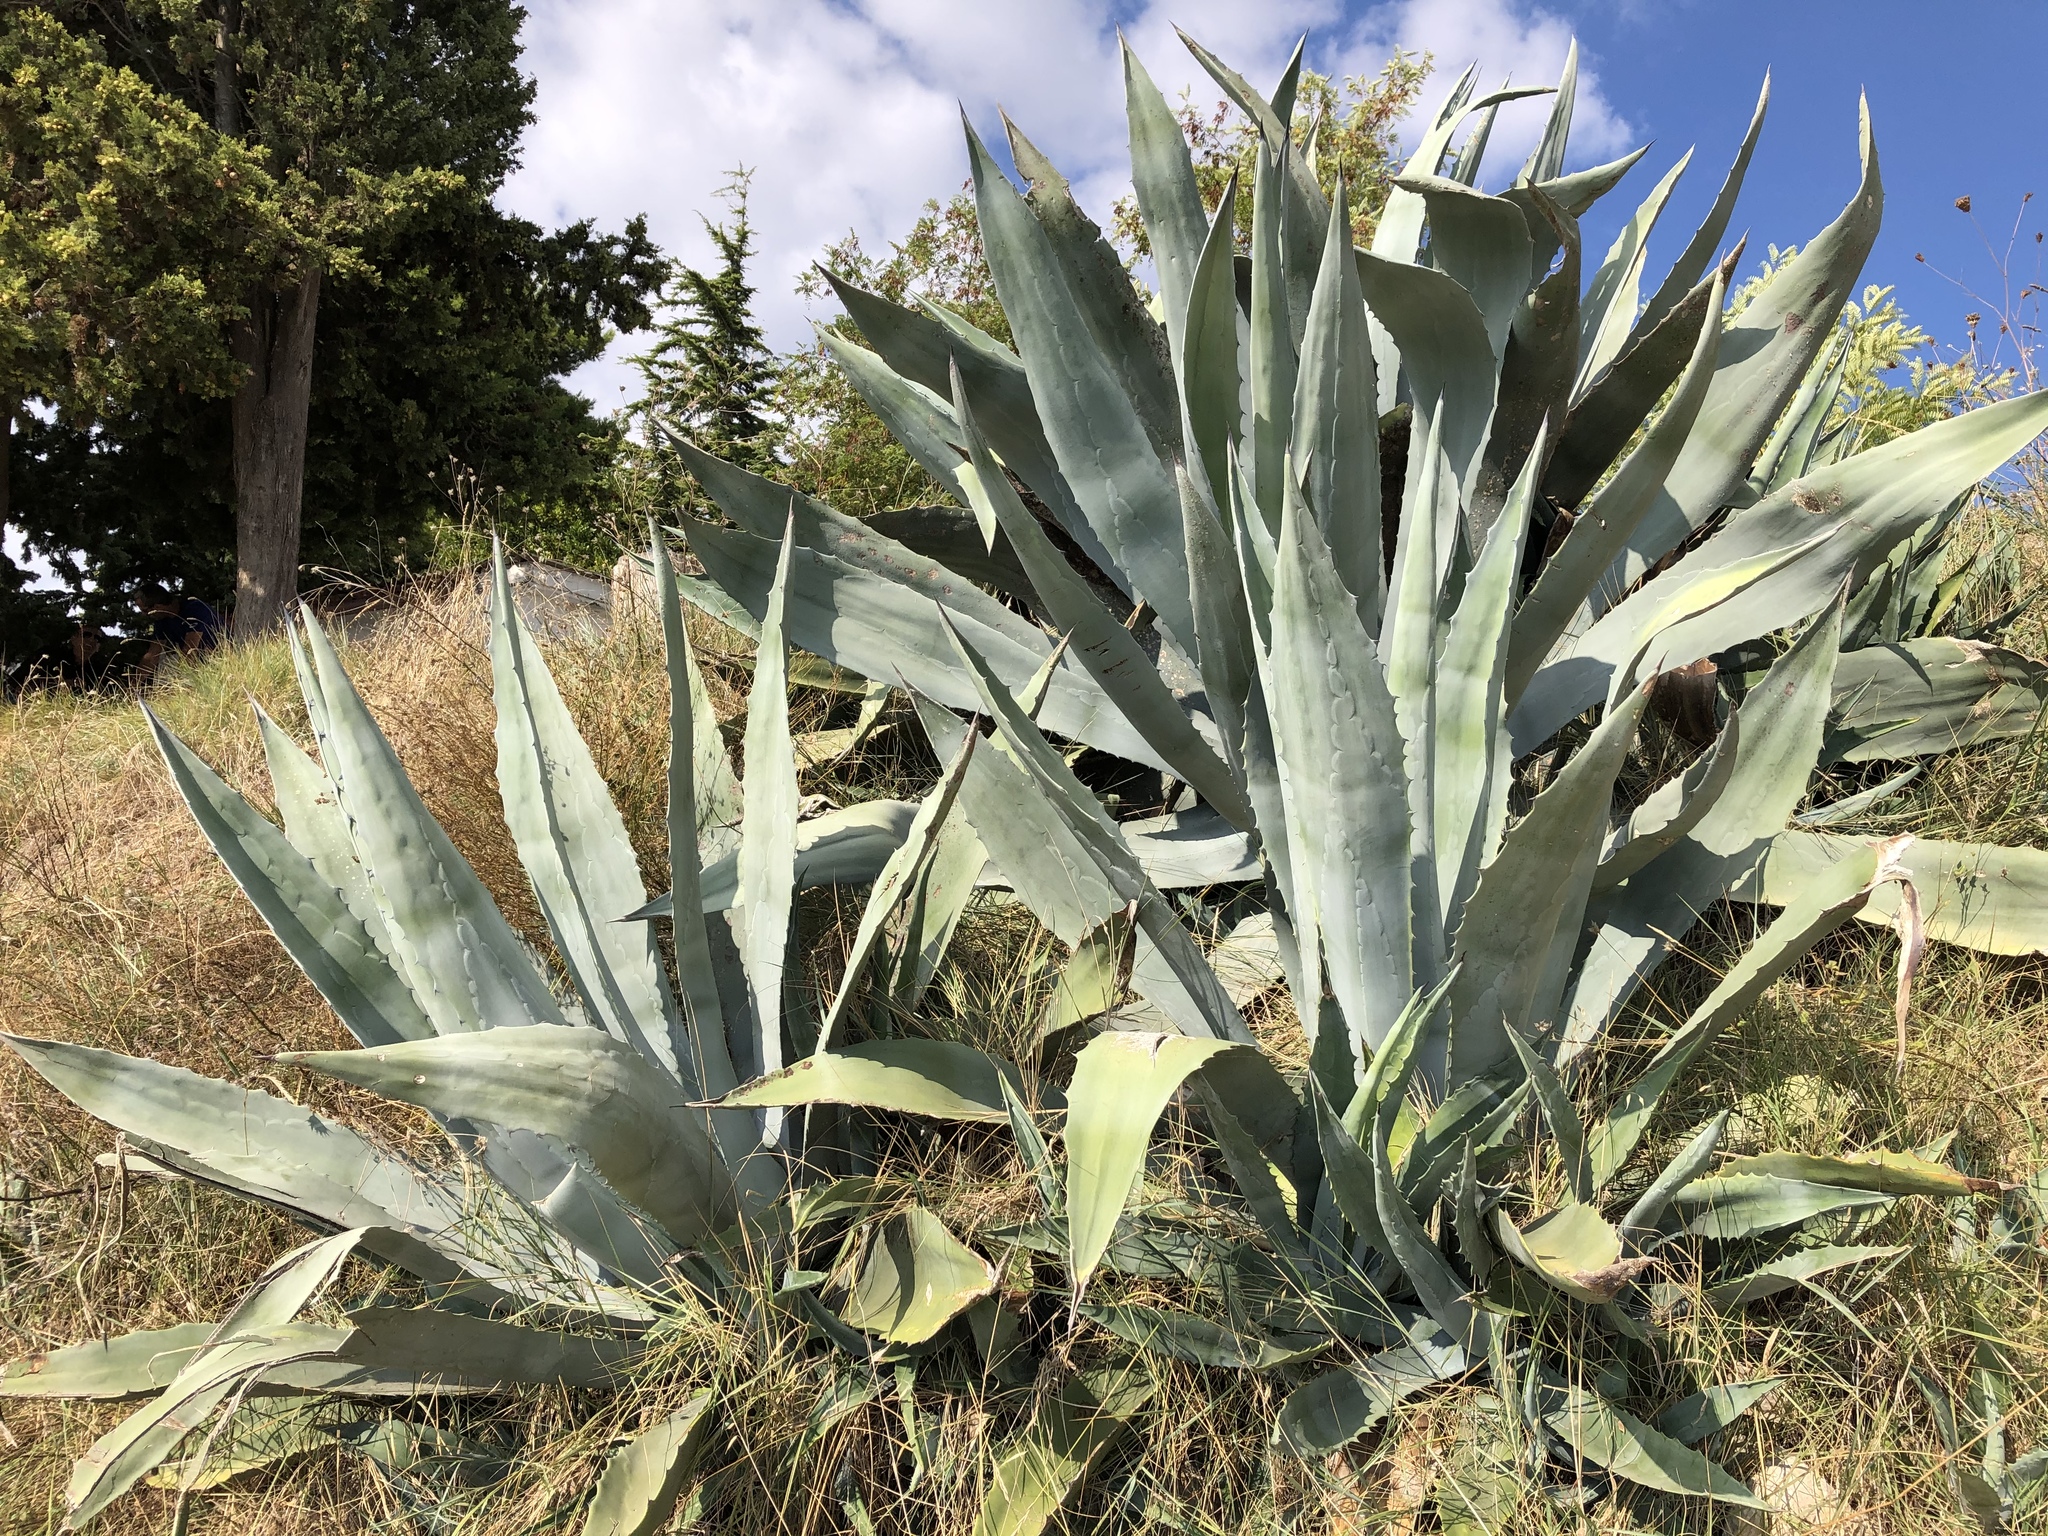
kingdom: Plantae
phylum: Tracheophyta
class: Liliopsida
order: Asparagales
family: Asparagaceae
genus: Agave
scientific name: Agave americana
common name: Centuryplant
